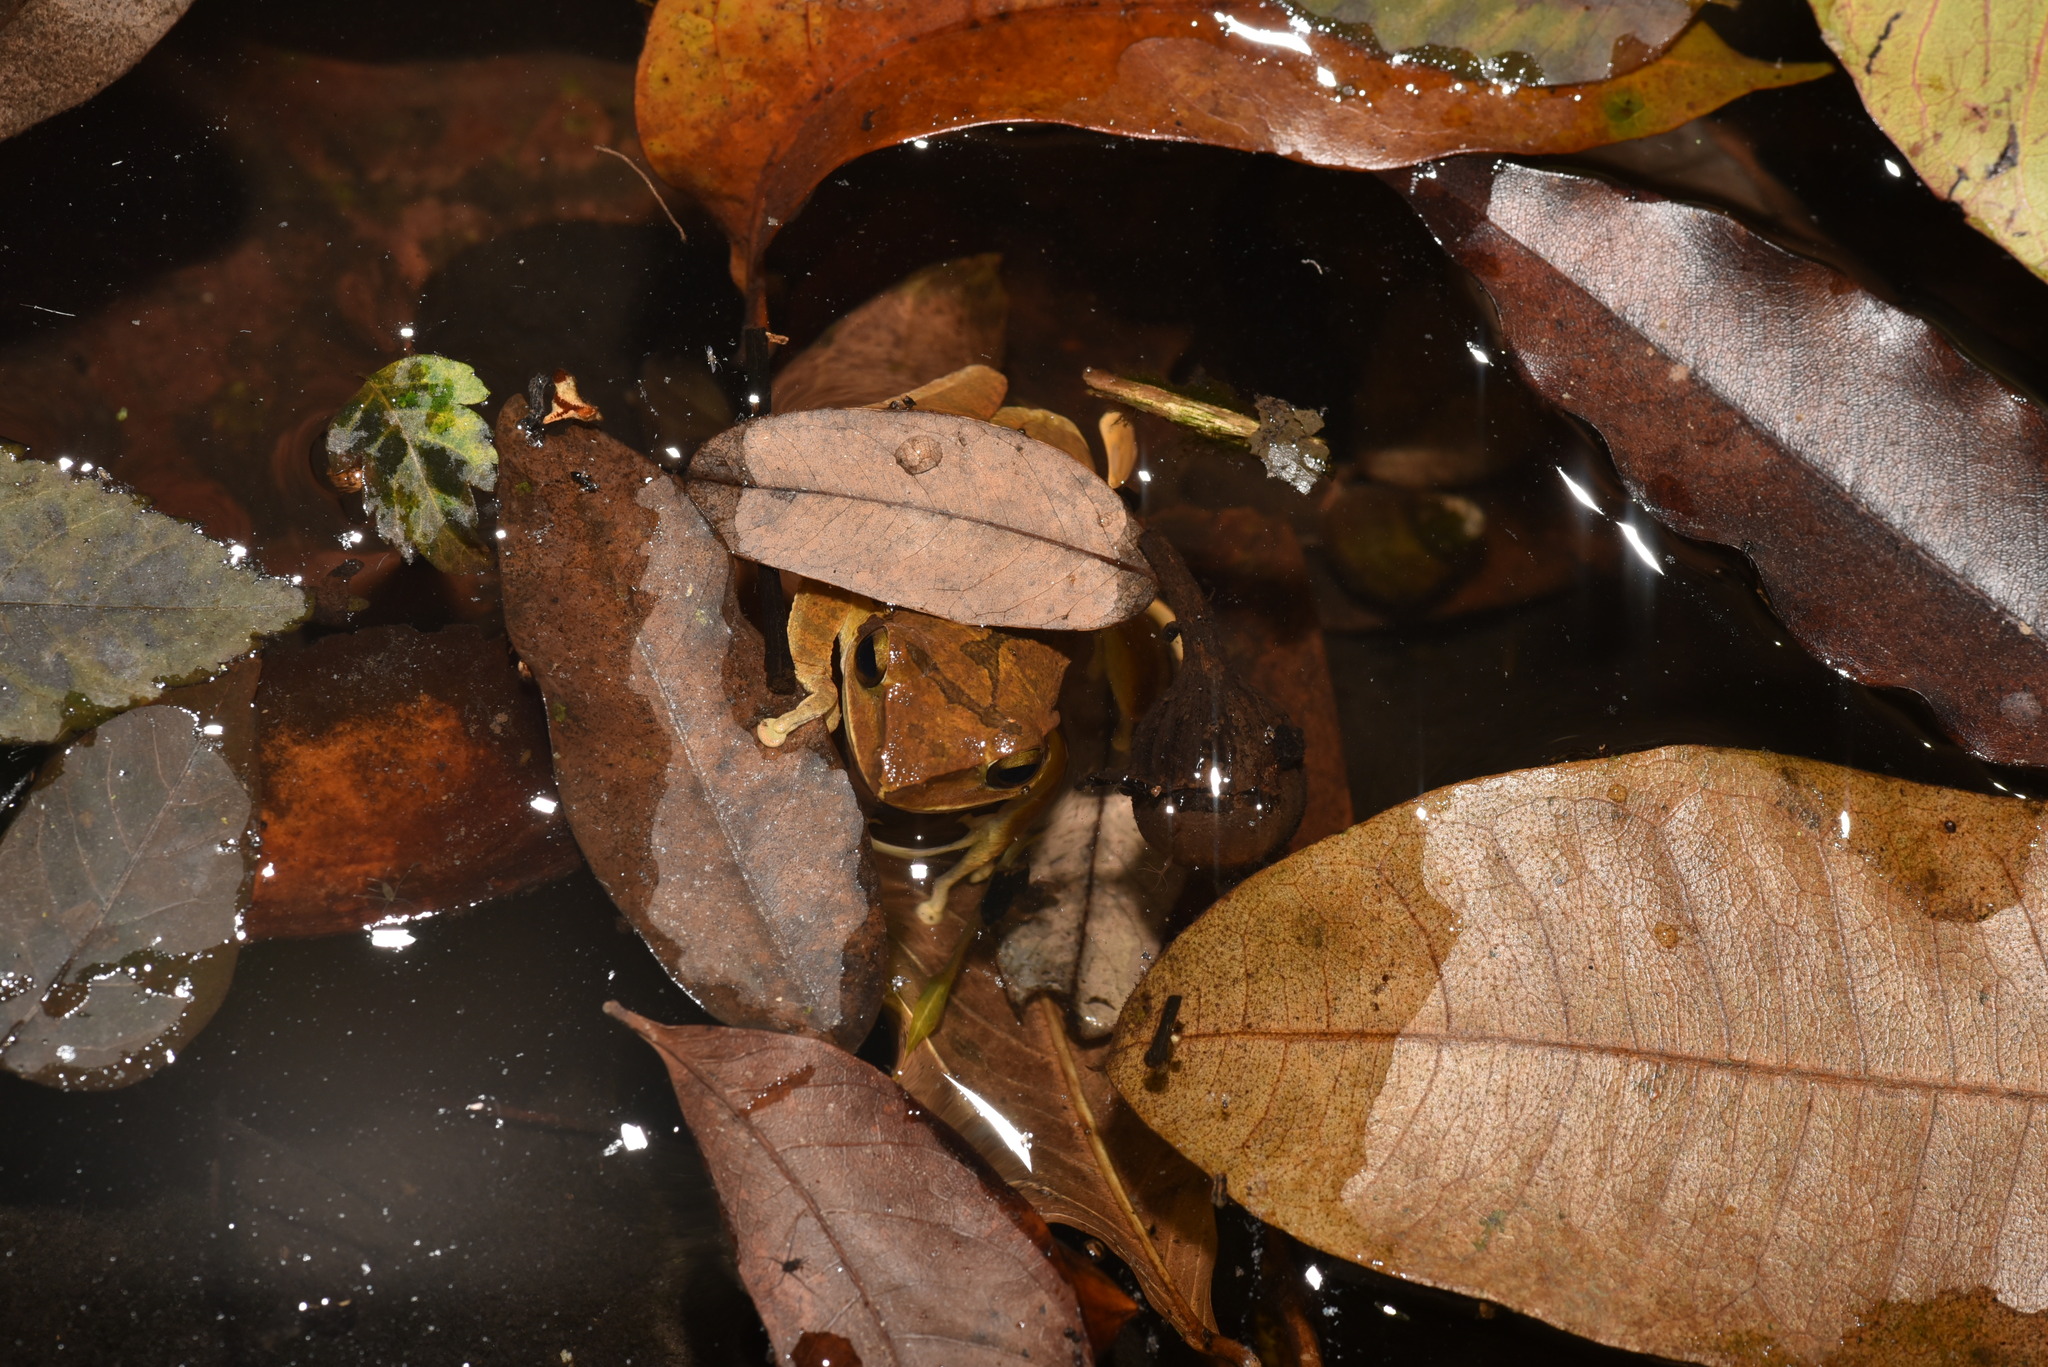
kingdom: Animalia
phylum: Chordata
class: Amphibia
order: Anura
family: Rhacophoridae
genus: Polypedates
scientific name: Polypedates megacephalus
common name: Hong kong whipping frog
